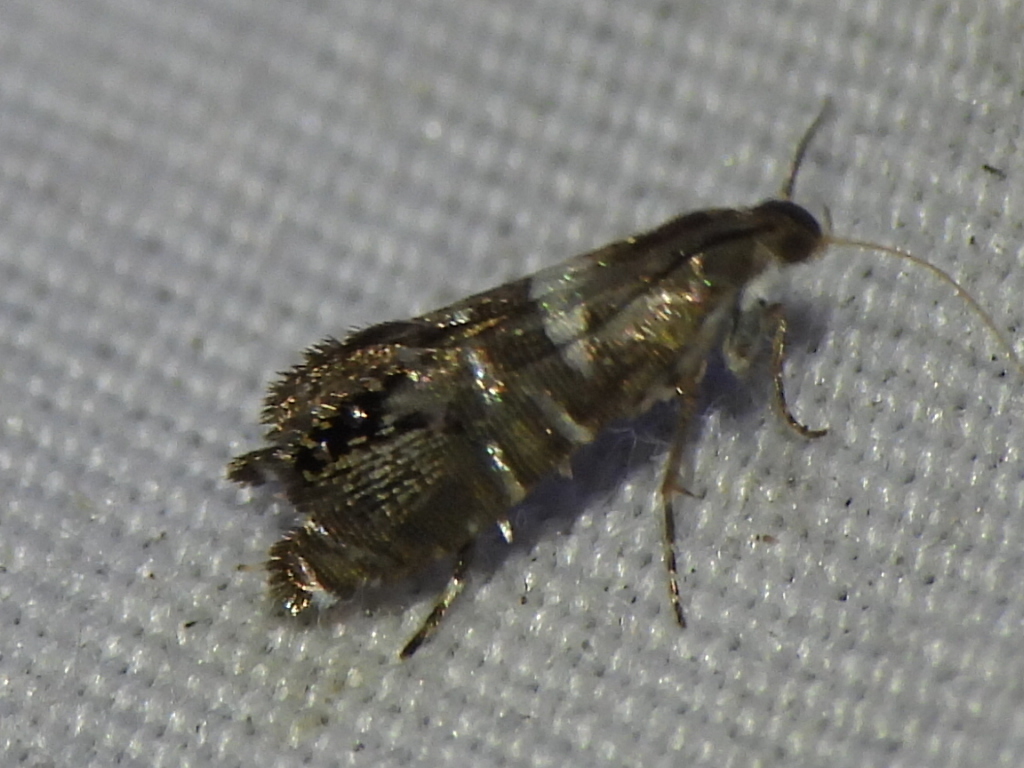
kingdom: Animalia
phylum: Arthropoda
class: Insecta
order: Lepidoptera
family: Glyphipterigidae
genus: Glyphipterix
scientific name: Glyphipterix circumscriptella
